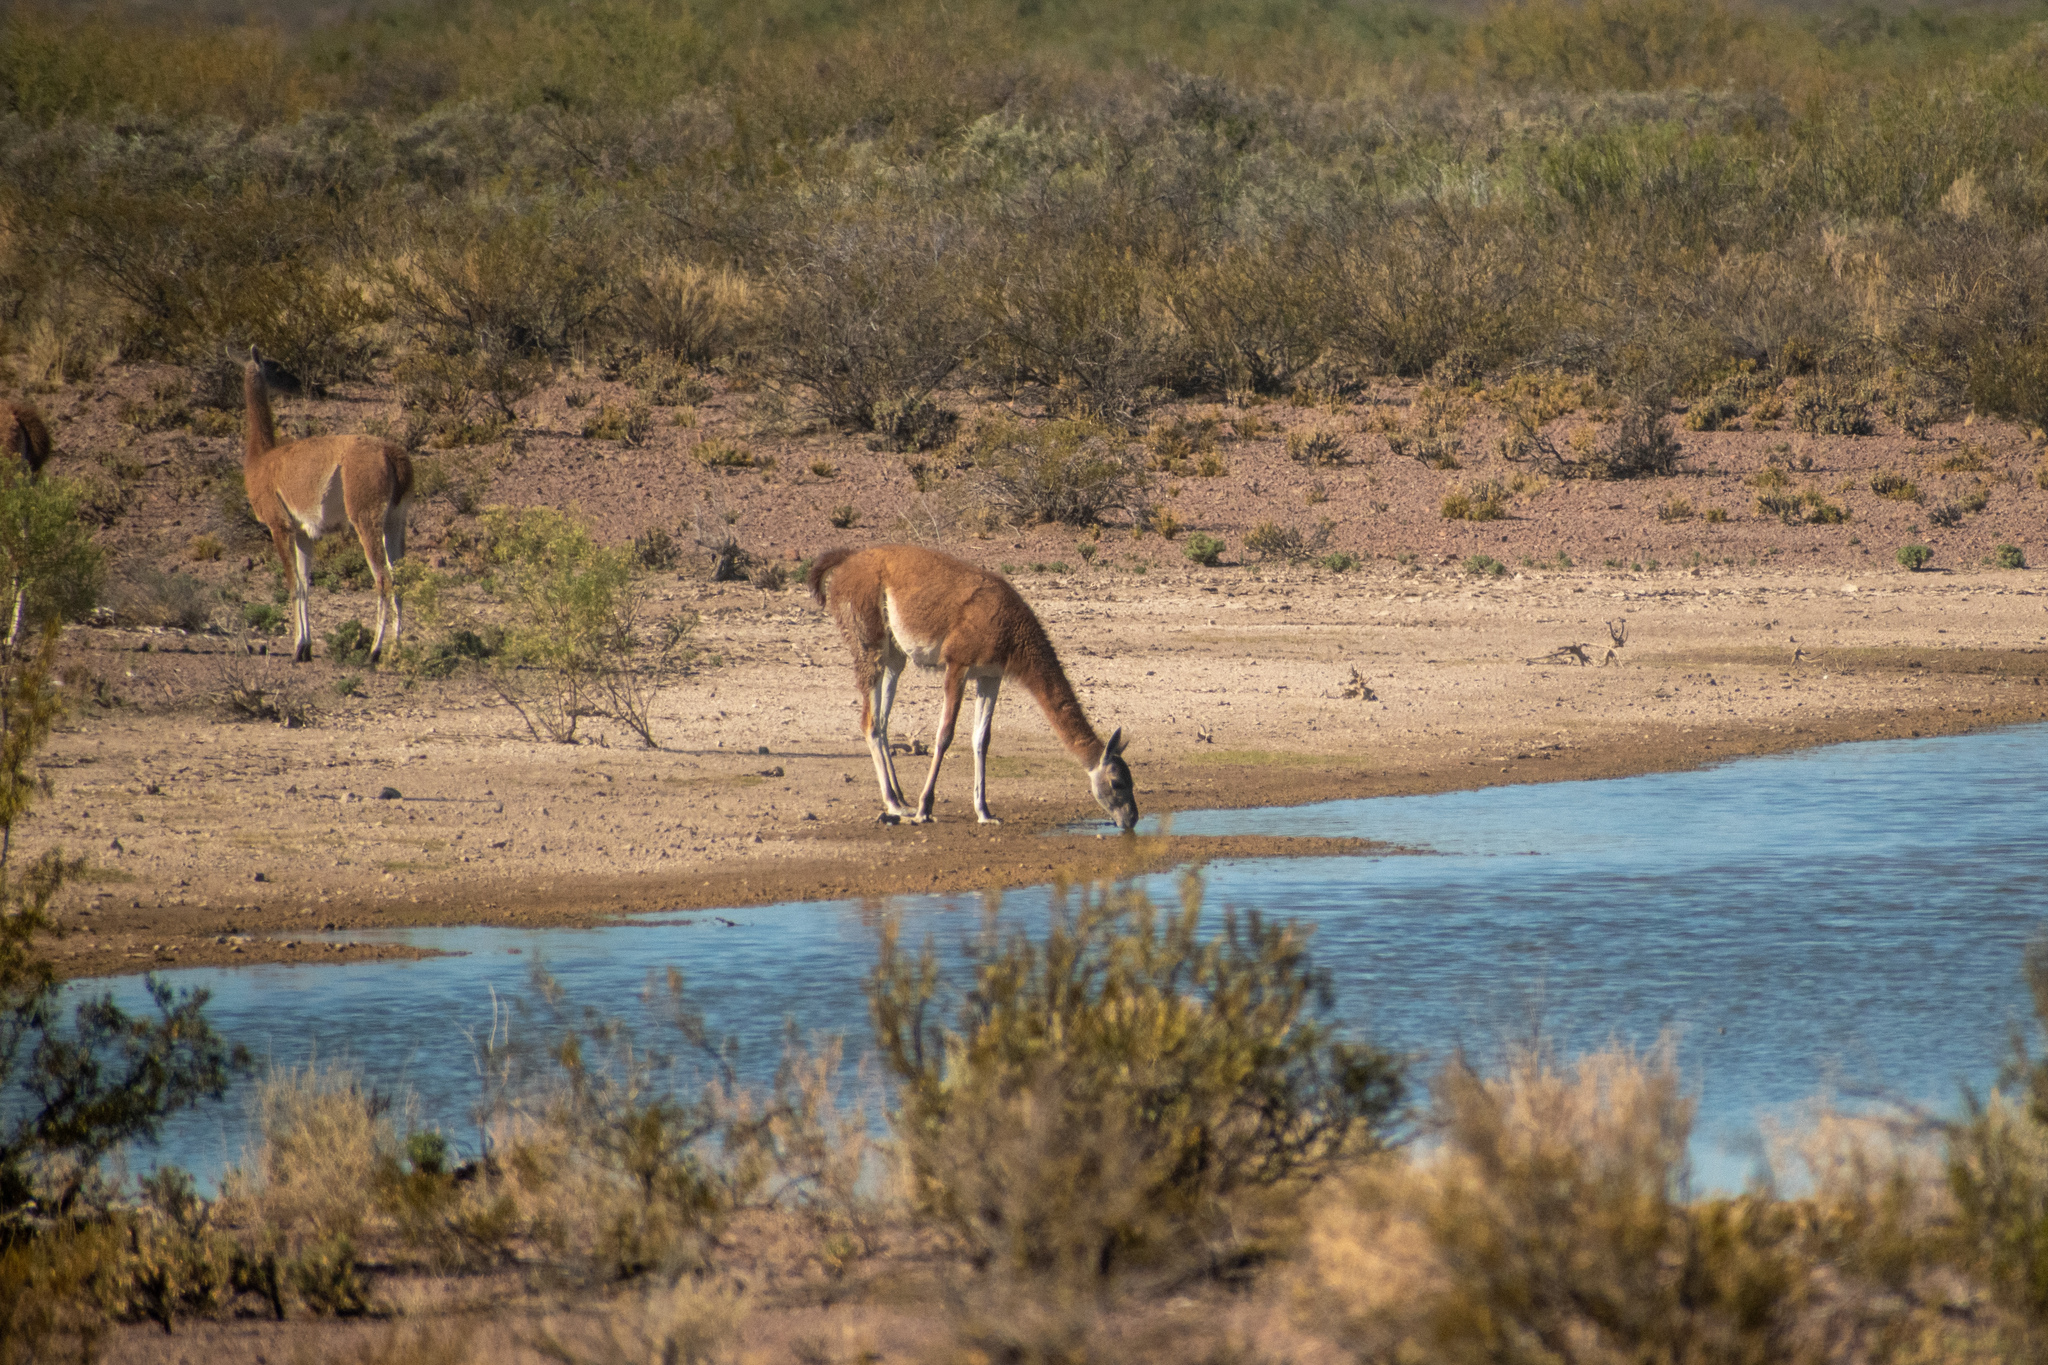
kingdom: Animalia
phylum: Chordata
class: Mammalia
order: Artiodactyla
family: Camelidae
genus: Lama
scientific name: Lama glama
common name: Llama
